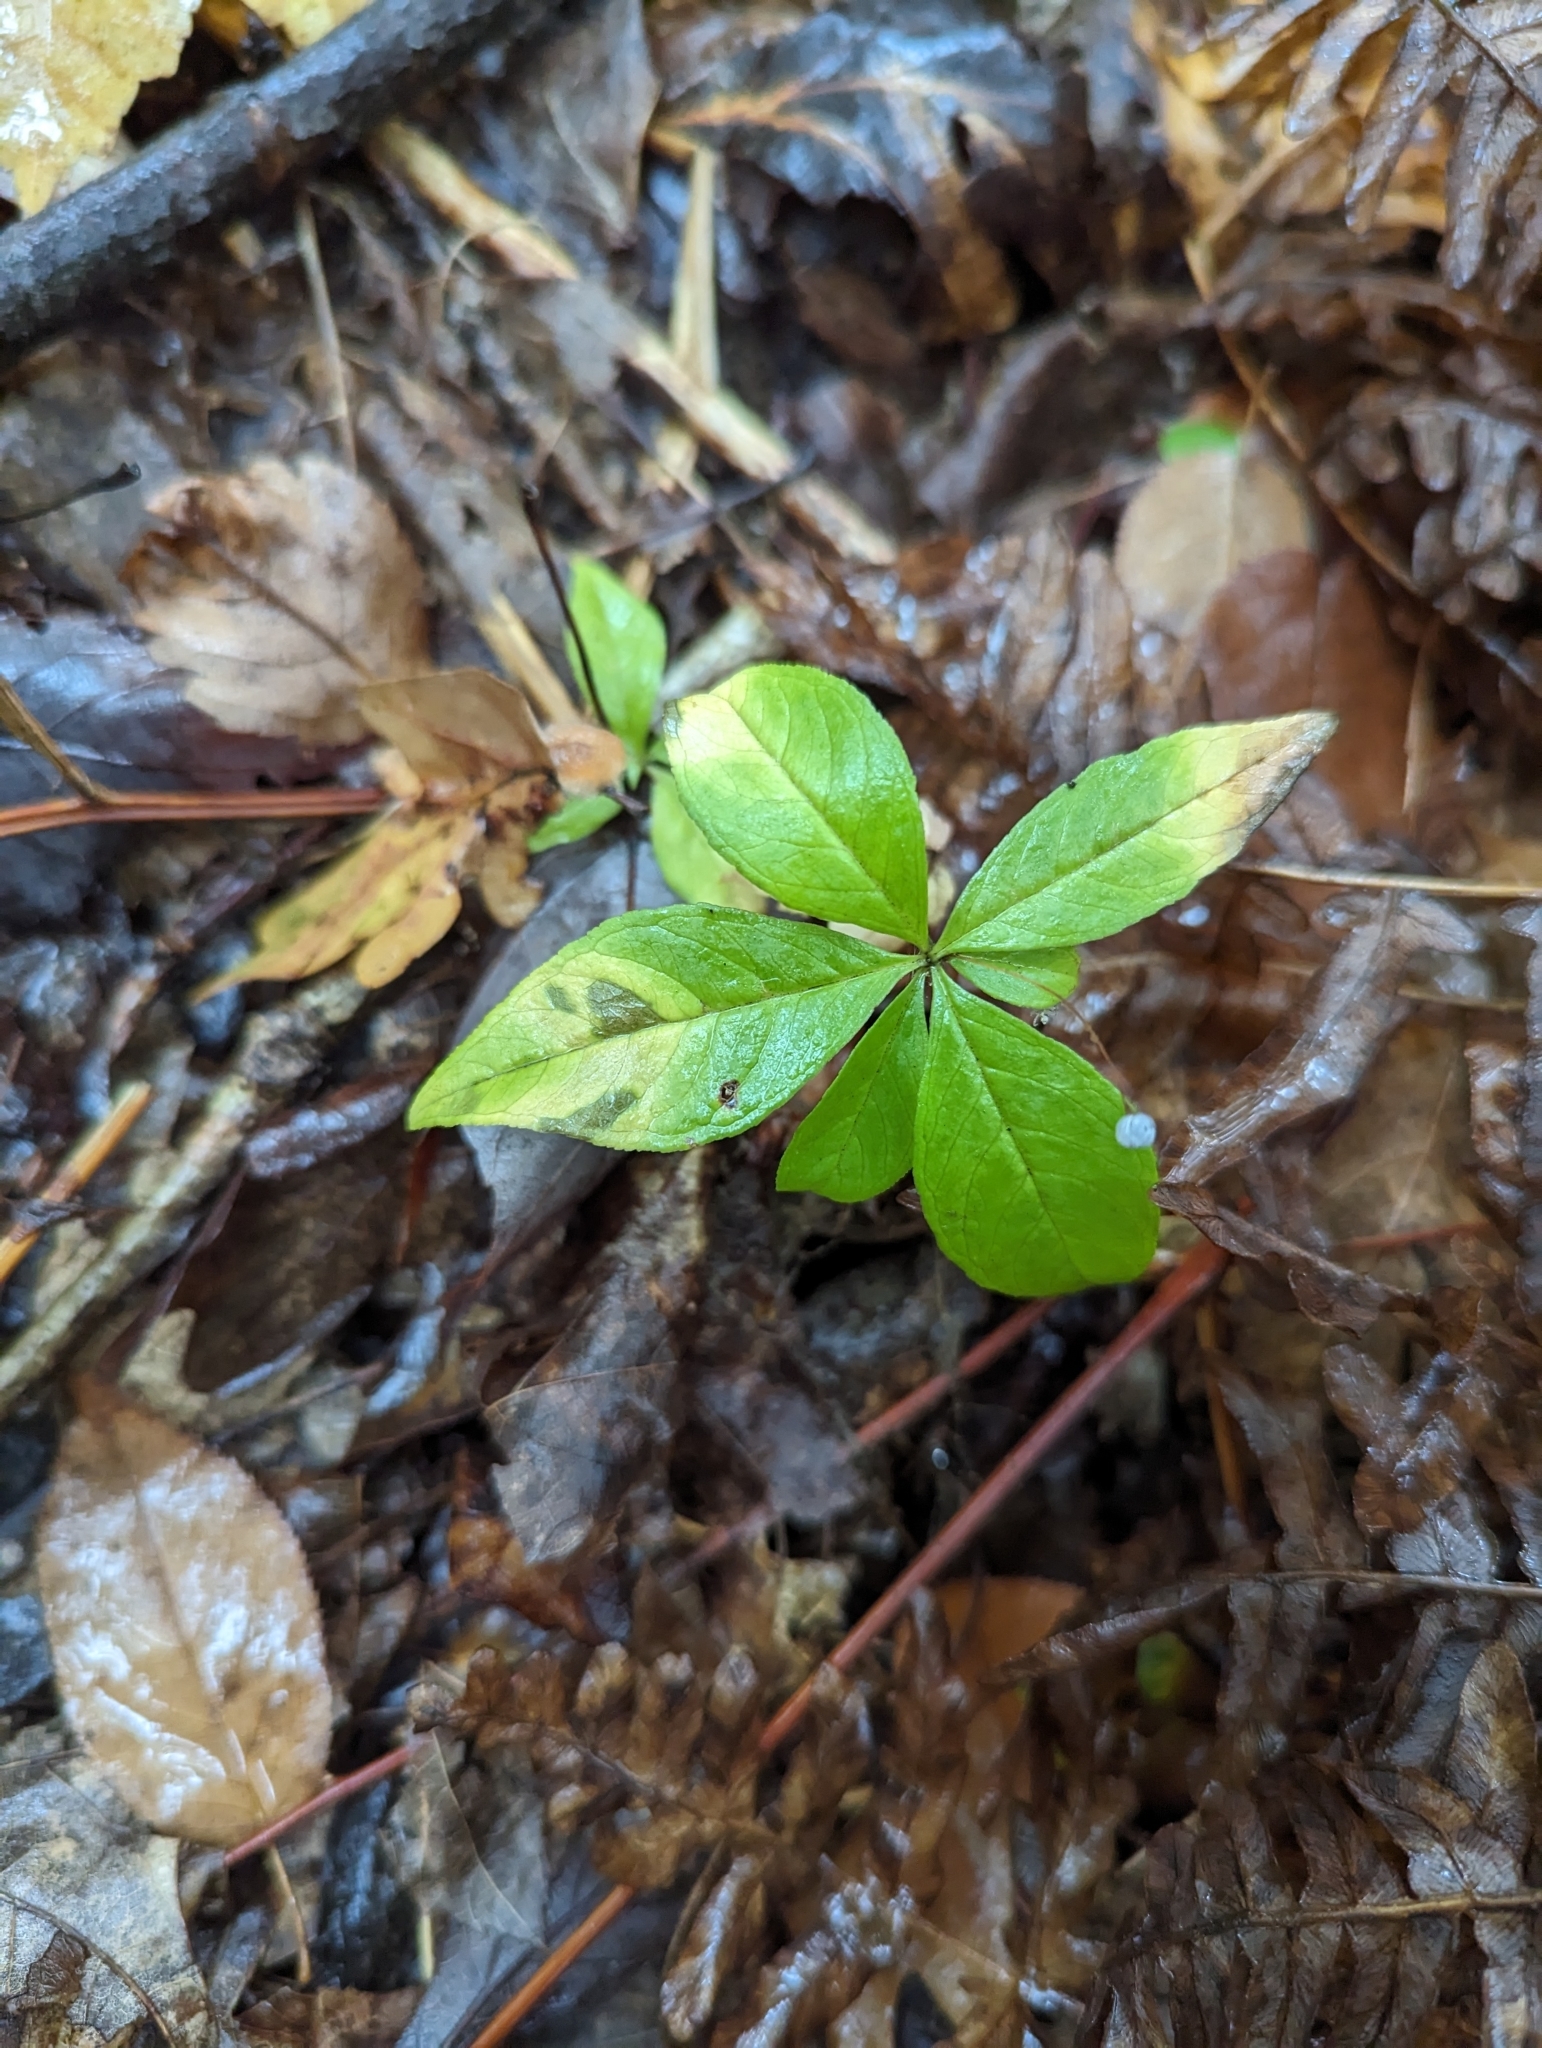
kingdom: Plantae
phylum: Tracheophyta
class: Magnoliopsida
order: Ericales
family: Primulaceae
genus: Lysimachia
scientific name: Lysimachia borealis
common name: American starflower
